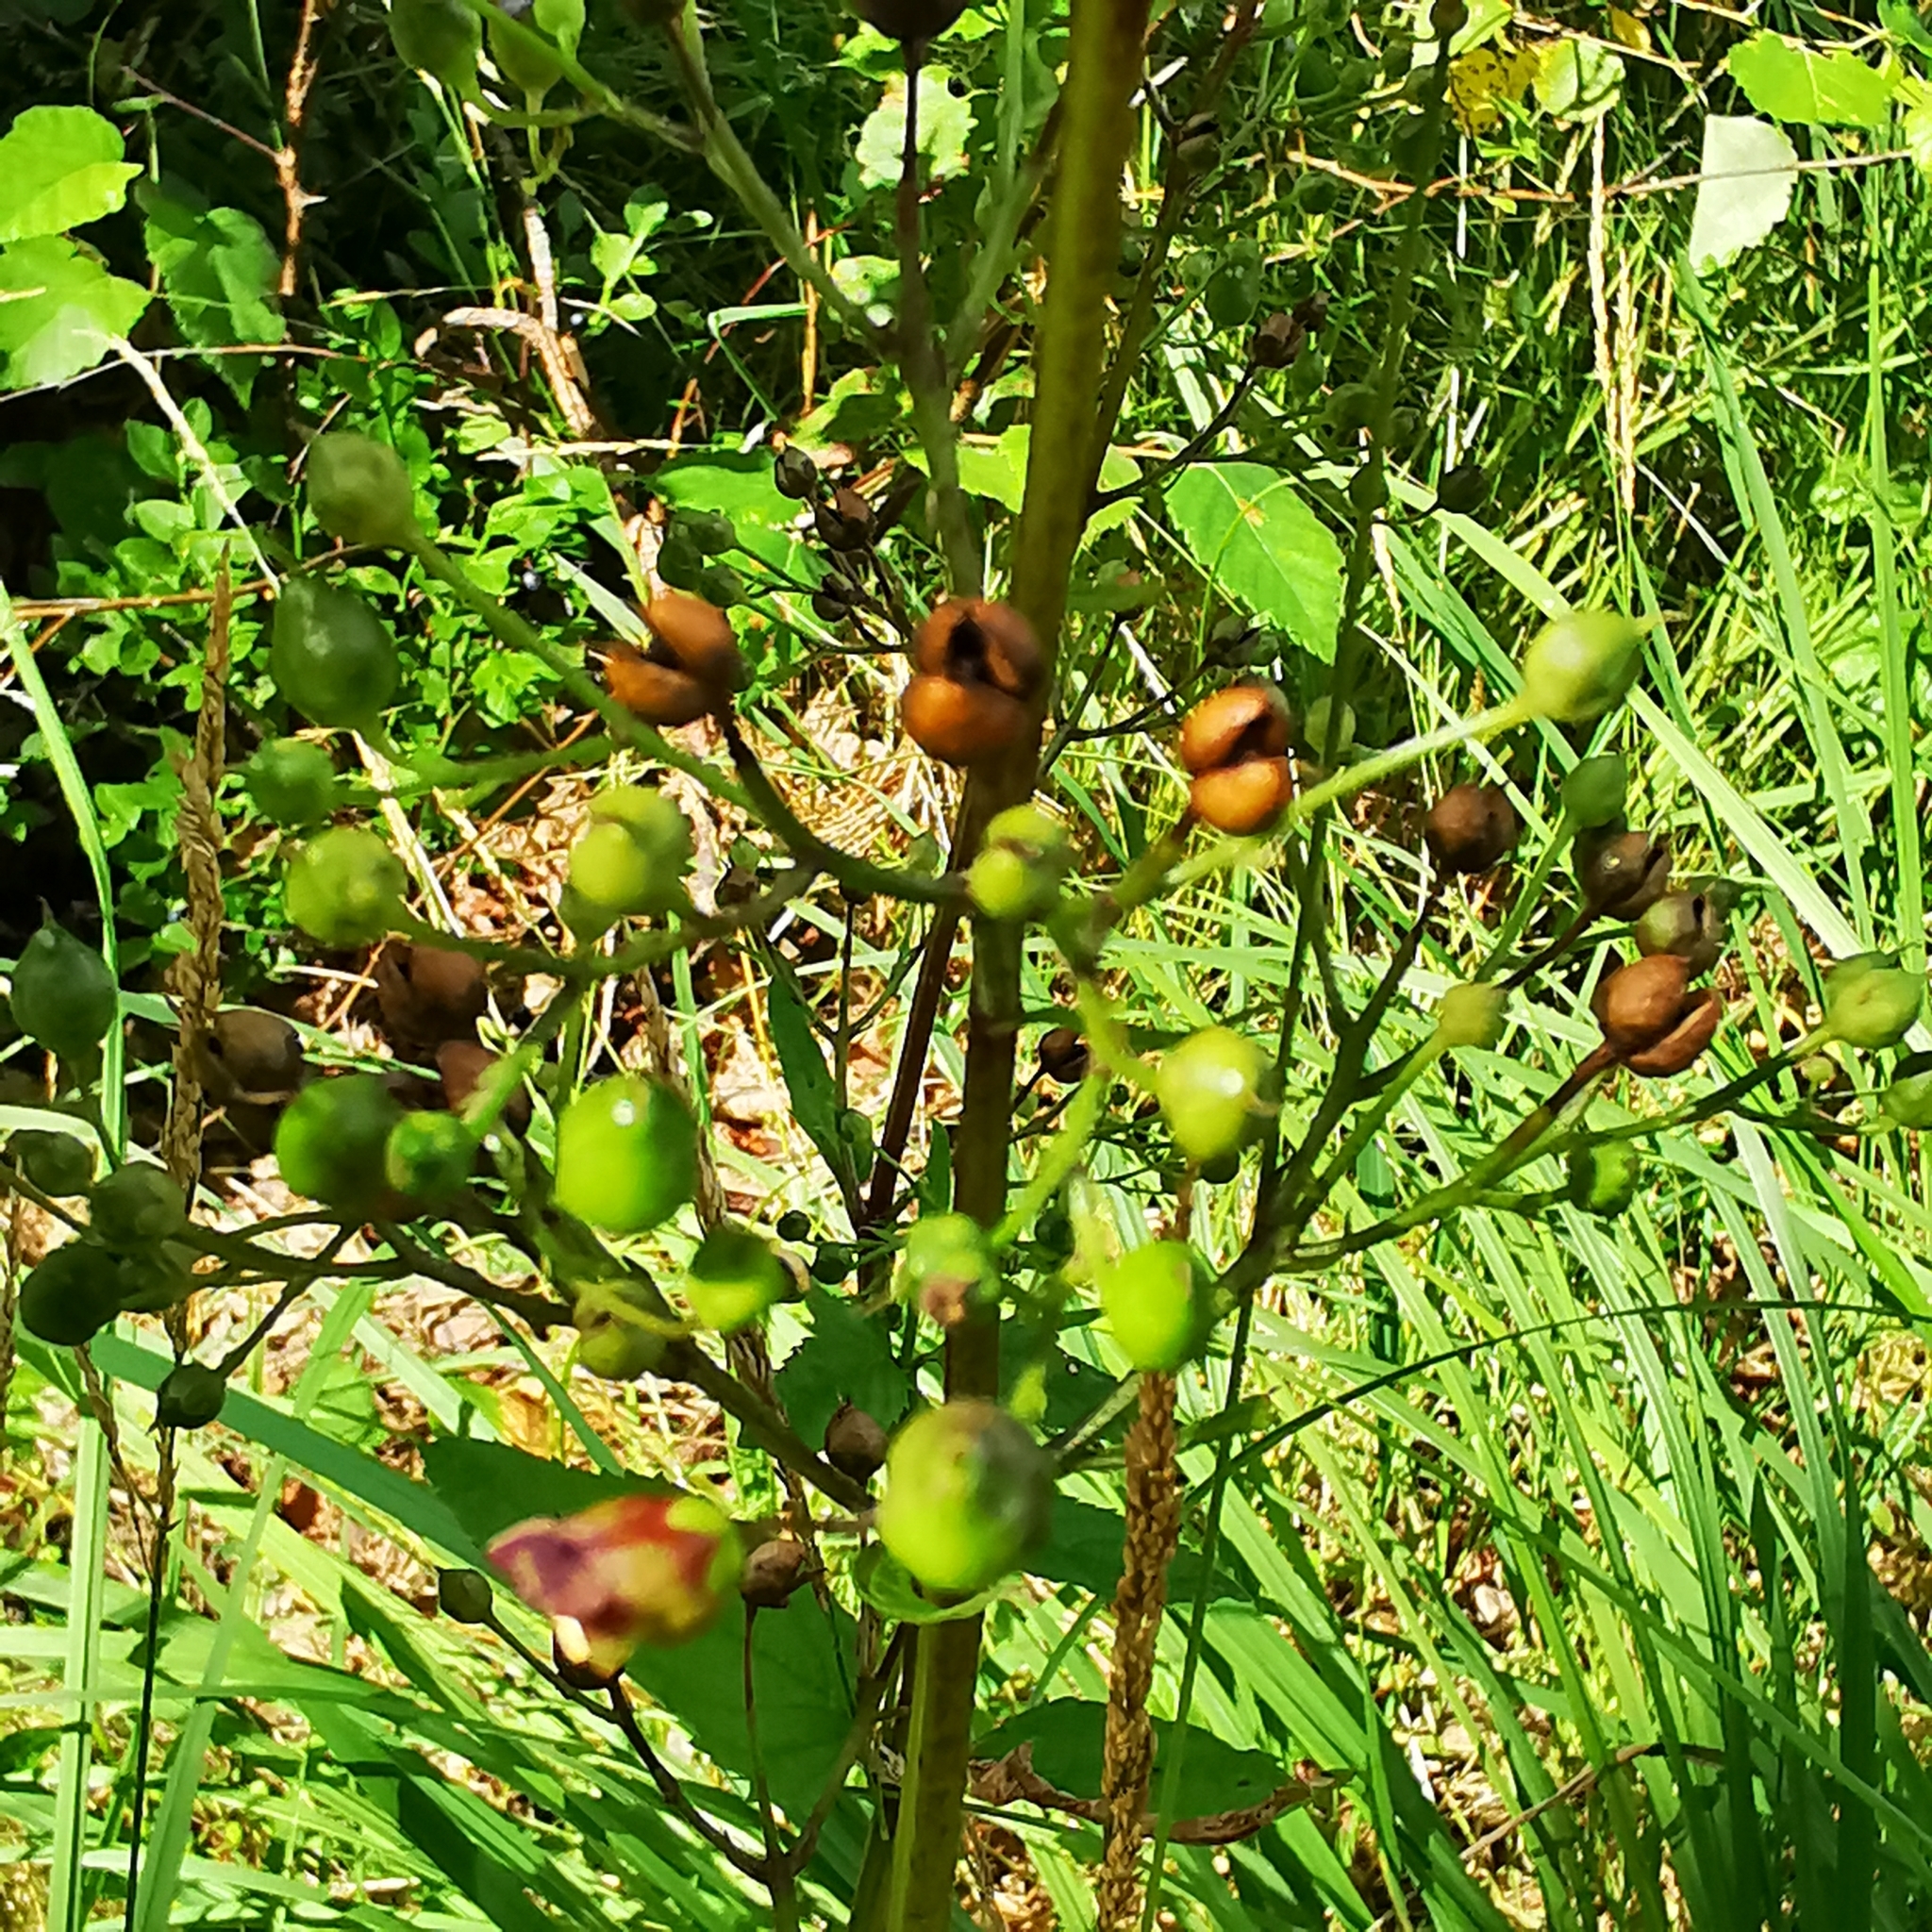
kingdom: Plantae
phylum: Tracheophyta
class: Magnoliopsida
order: Lamiales
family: Scrophulariaceae
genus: Scrophularia
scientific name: Scrophularia nodosa
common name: Common figwort
